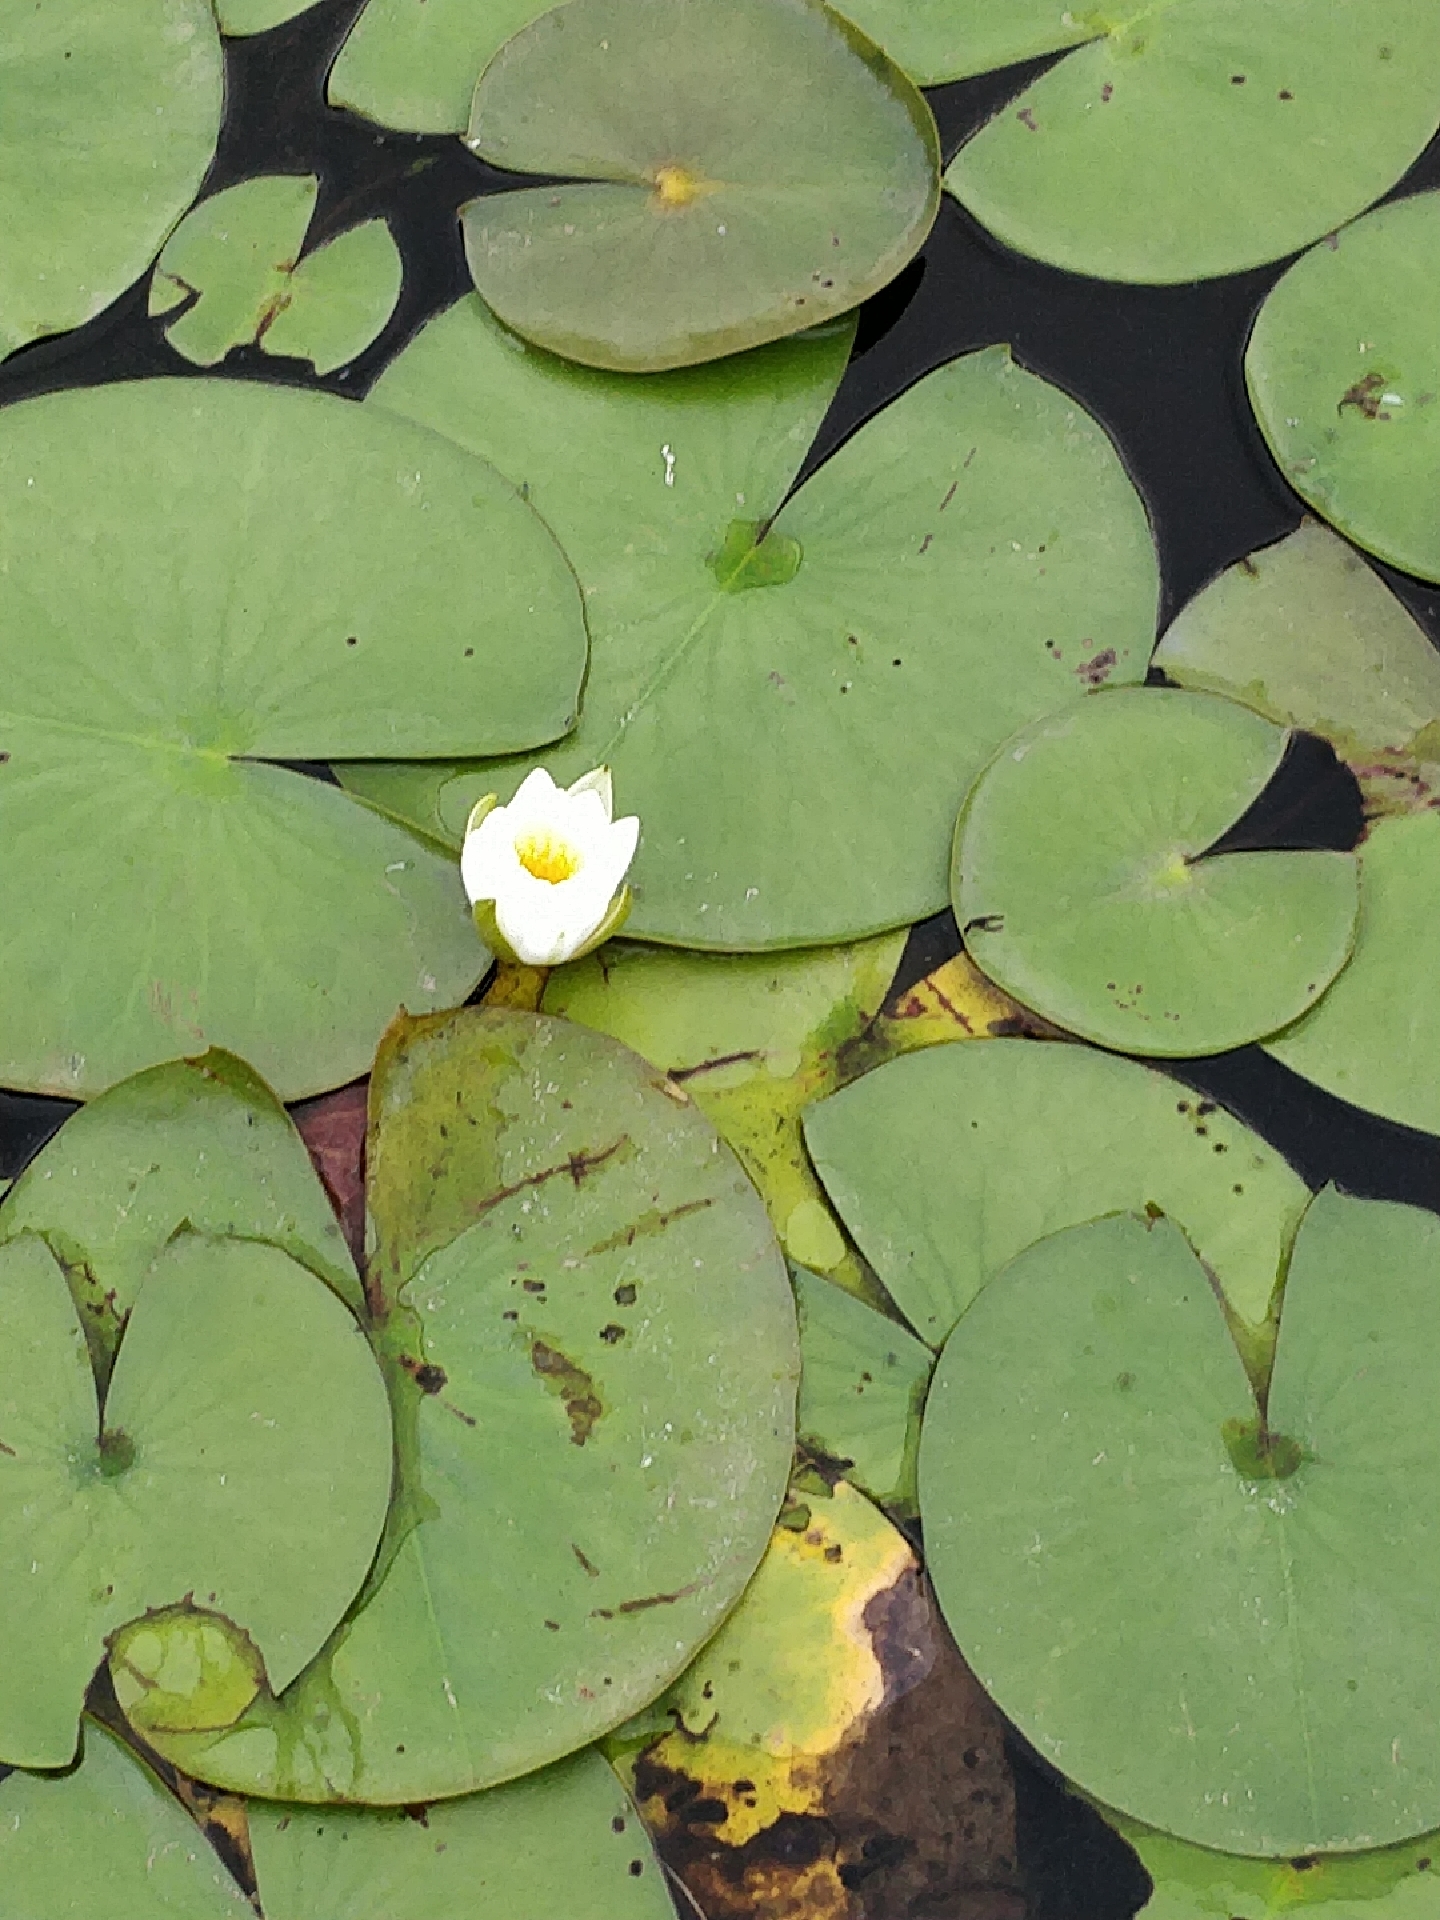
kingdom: Plantae
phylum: Tracheophyta
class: Magnoliopsida
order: Nymphaeales
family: Nymphaeaceae
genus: Nymphaea
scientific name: Nymphaea odorata
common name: Fragrant water-lily
